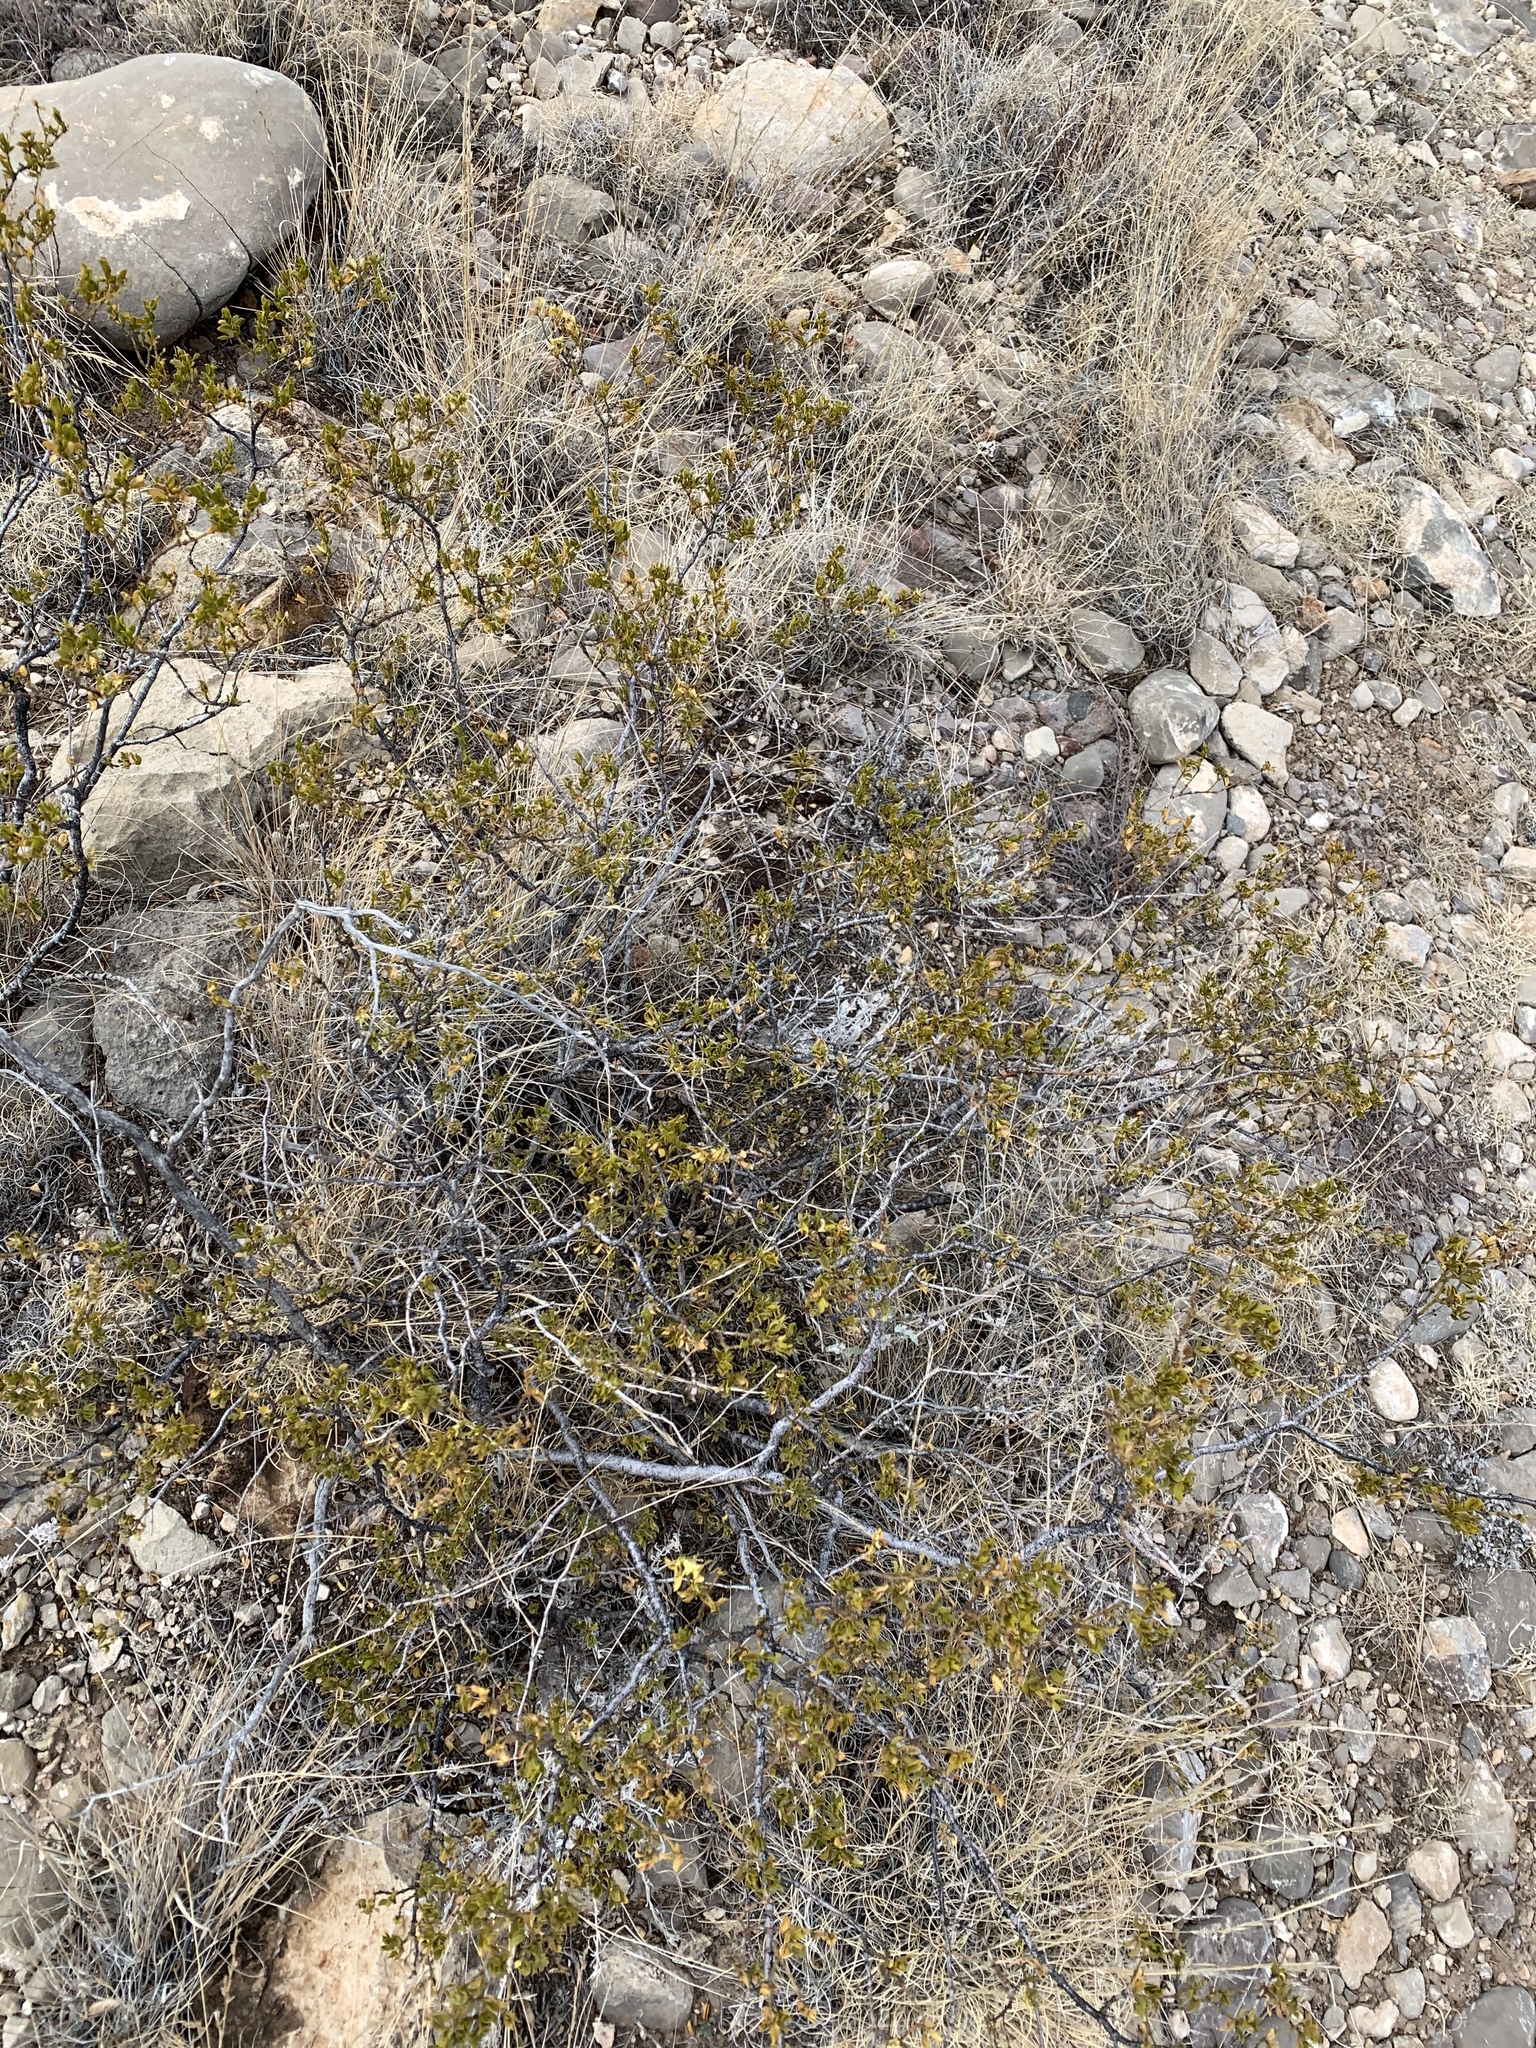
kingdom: Plantae
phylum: Tracheophyta
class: Magnoliopsida
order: Zygophyllales
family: Zygophyllaceae
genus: Larrea
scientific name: Larrea tridentata
